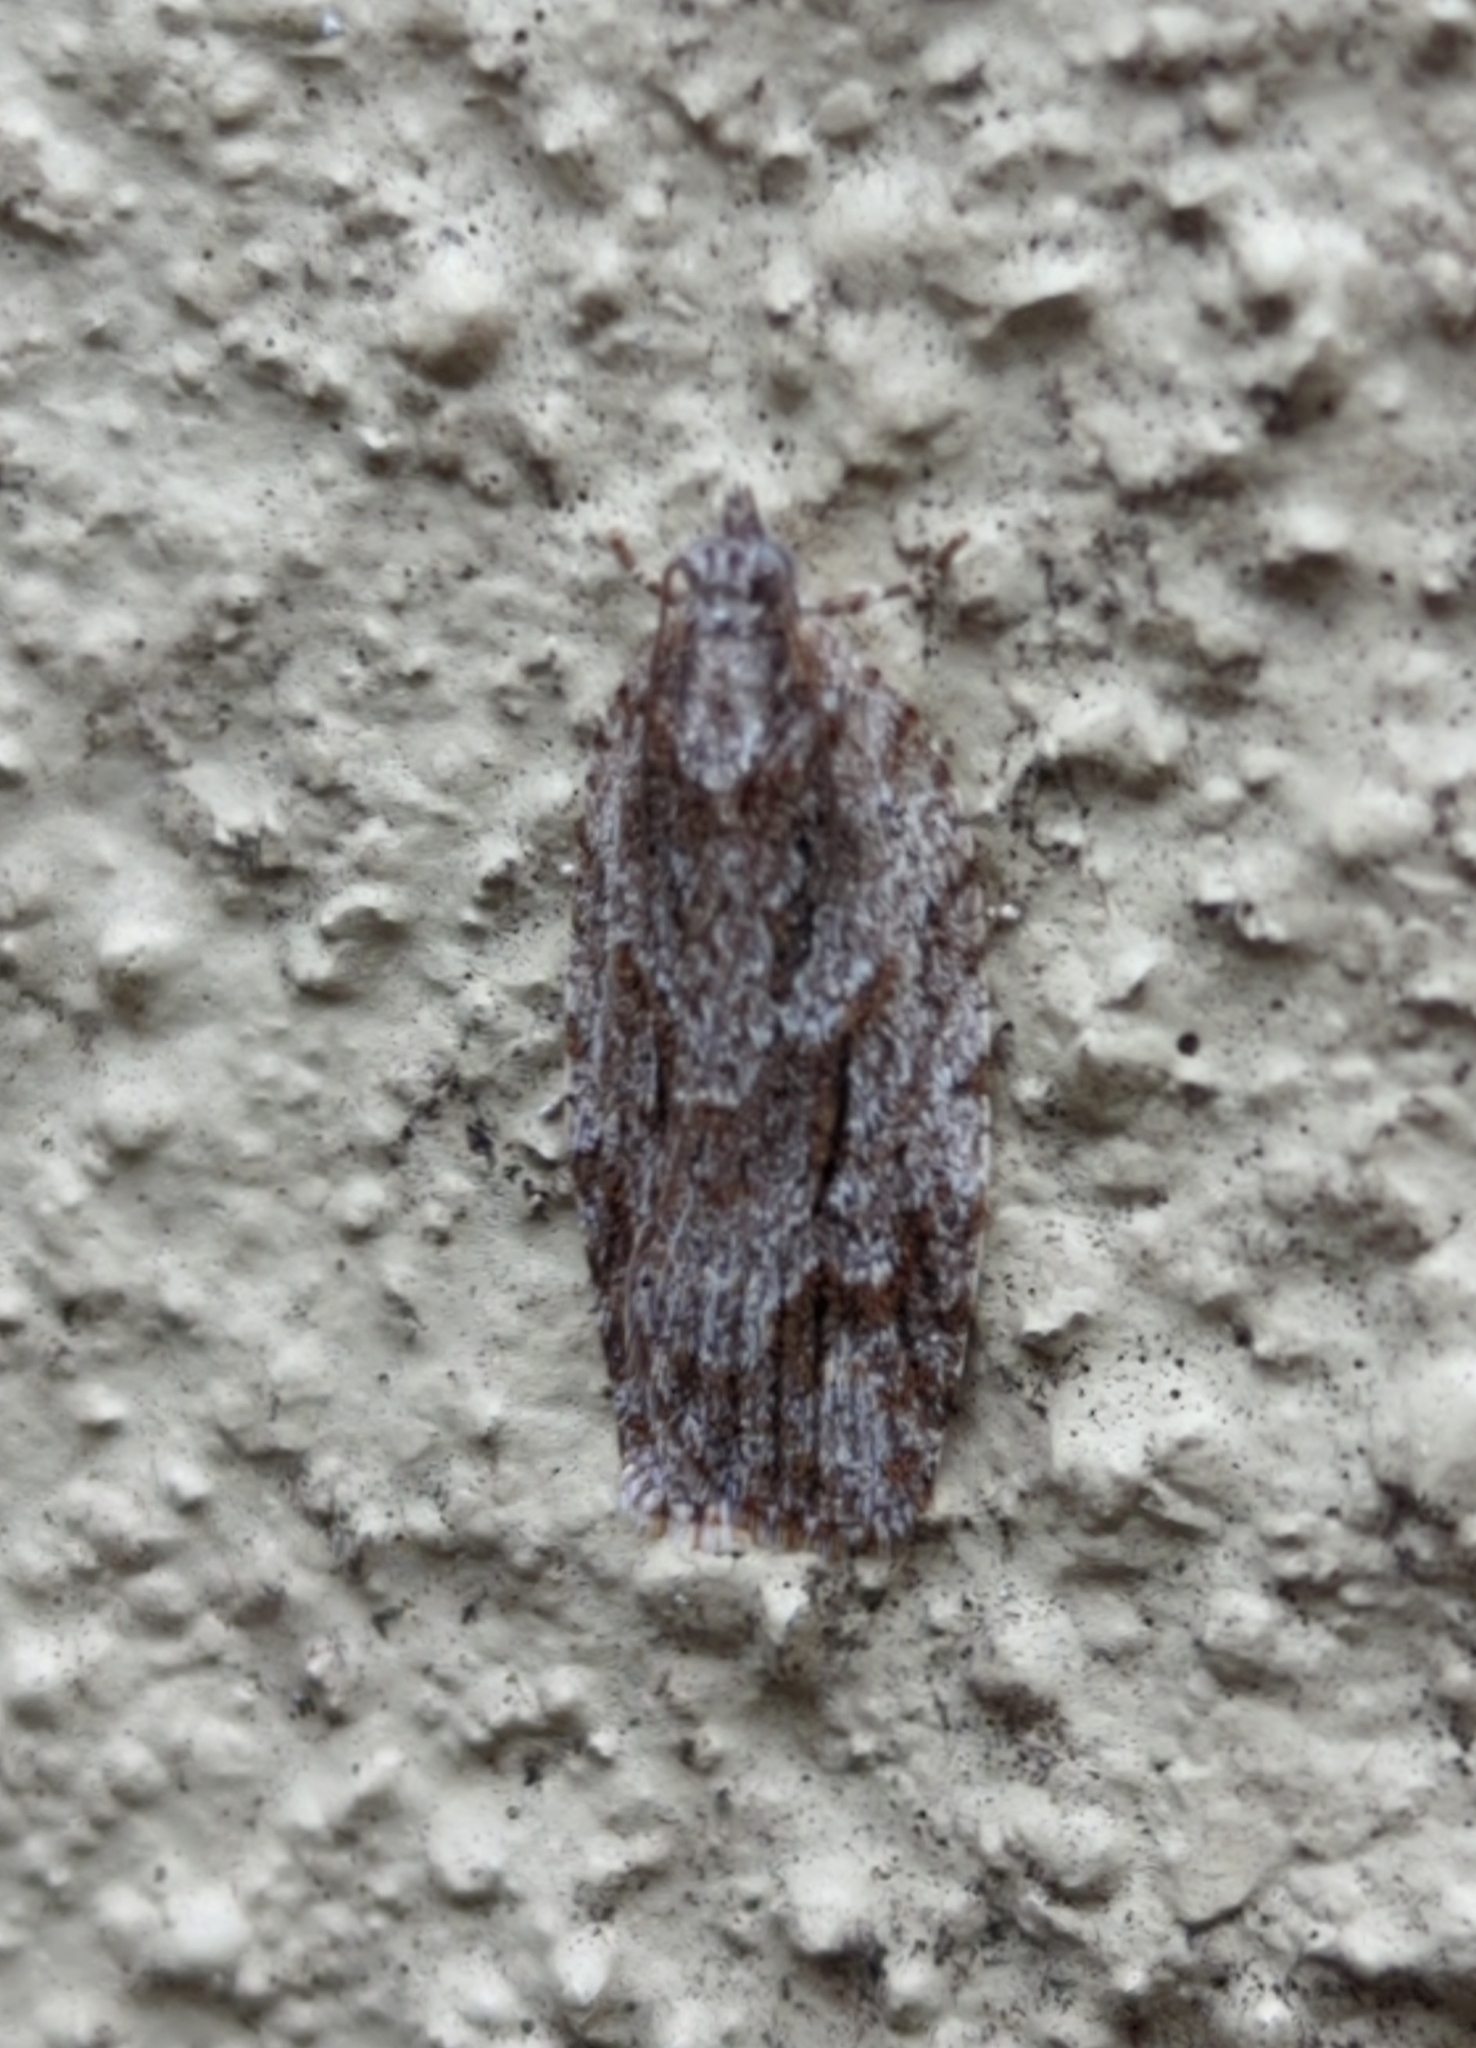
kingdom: Animalia
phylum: Arthropoda
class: Insecta
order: Lepidoptera
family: Tortricidae
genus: Acropolitis
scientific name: Acropolitis rudisana
